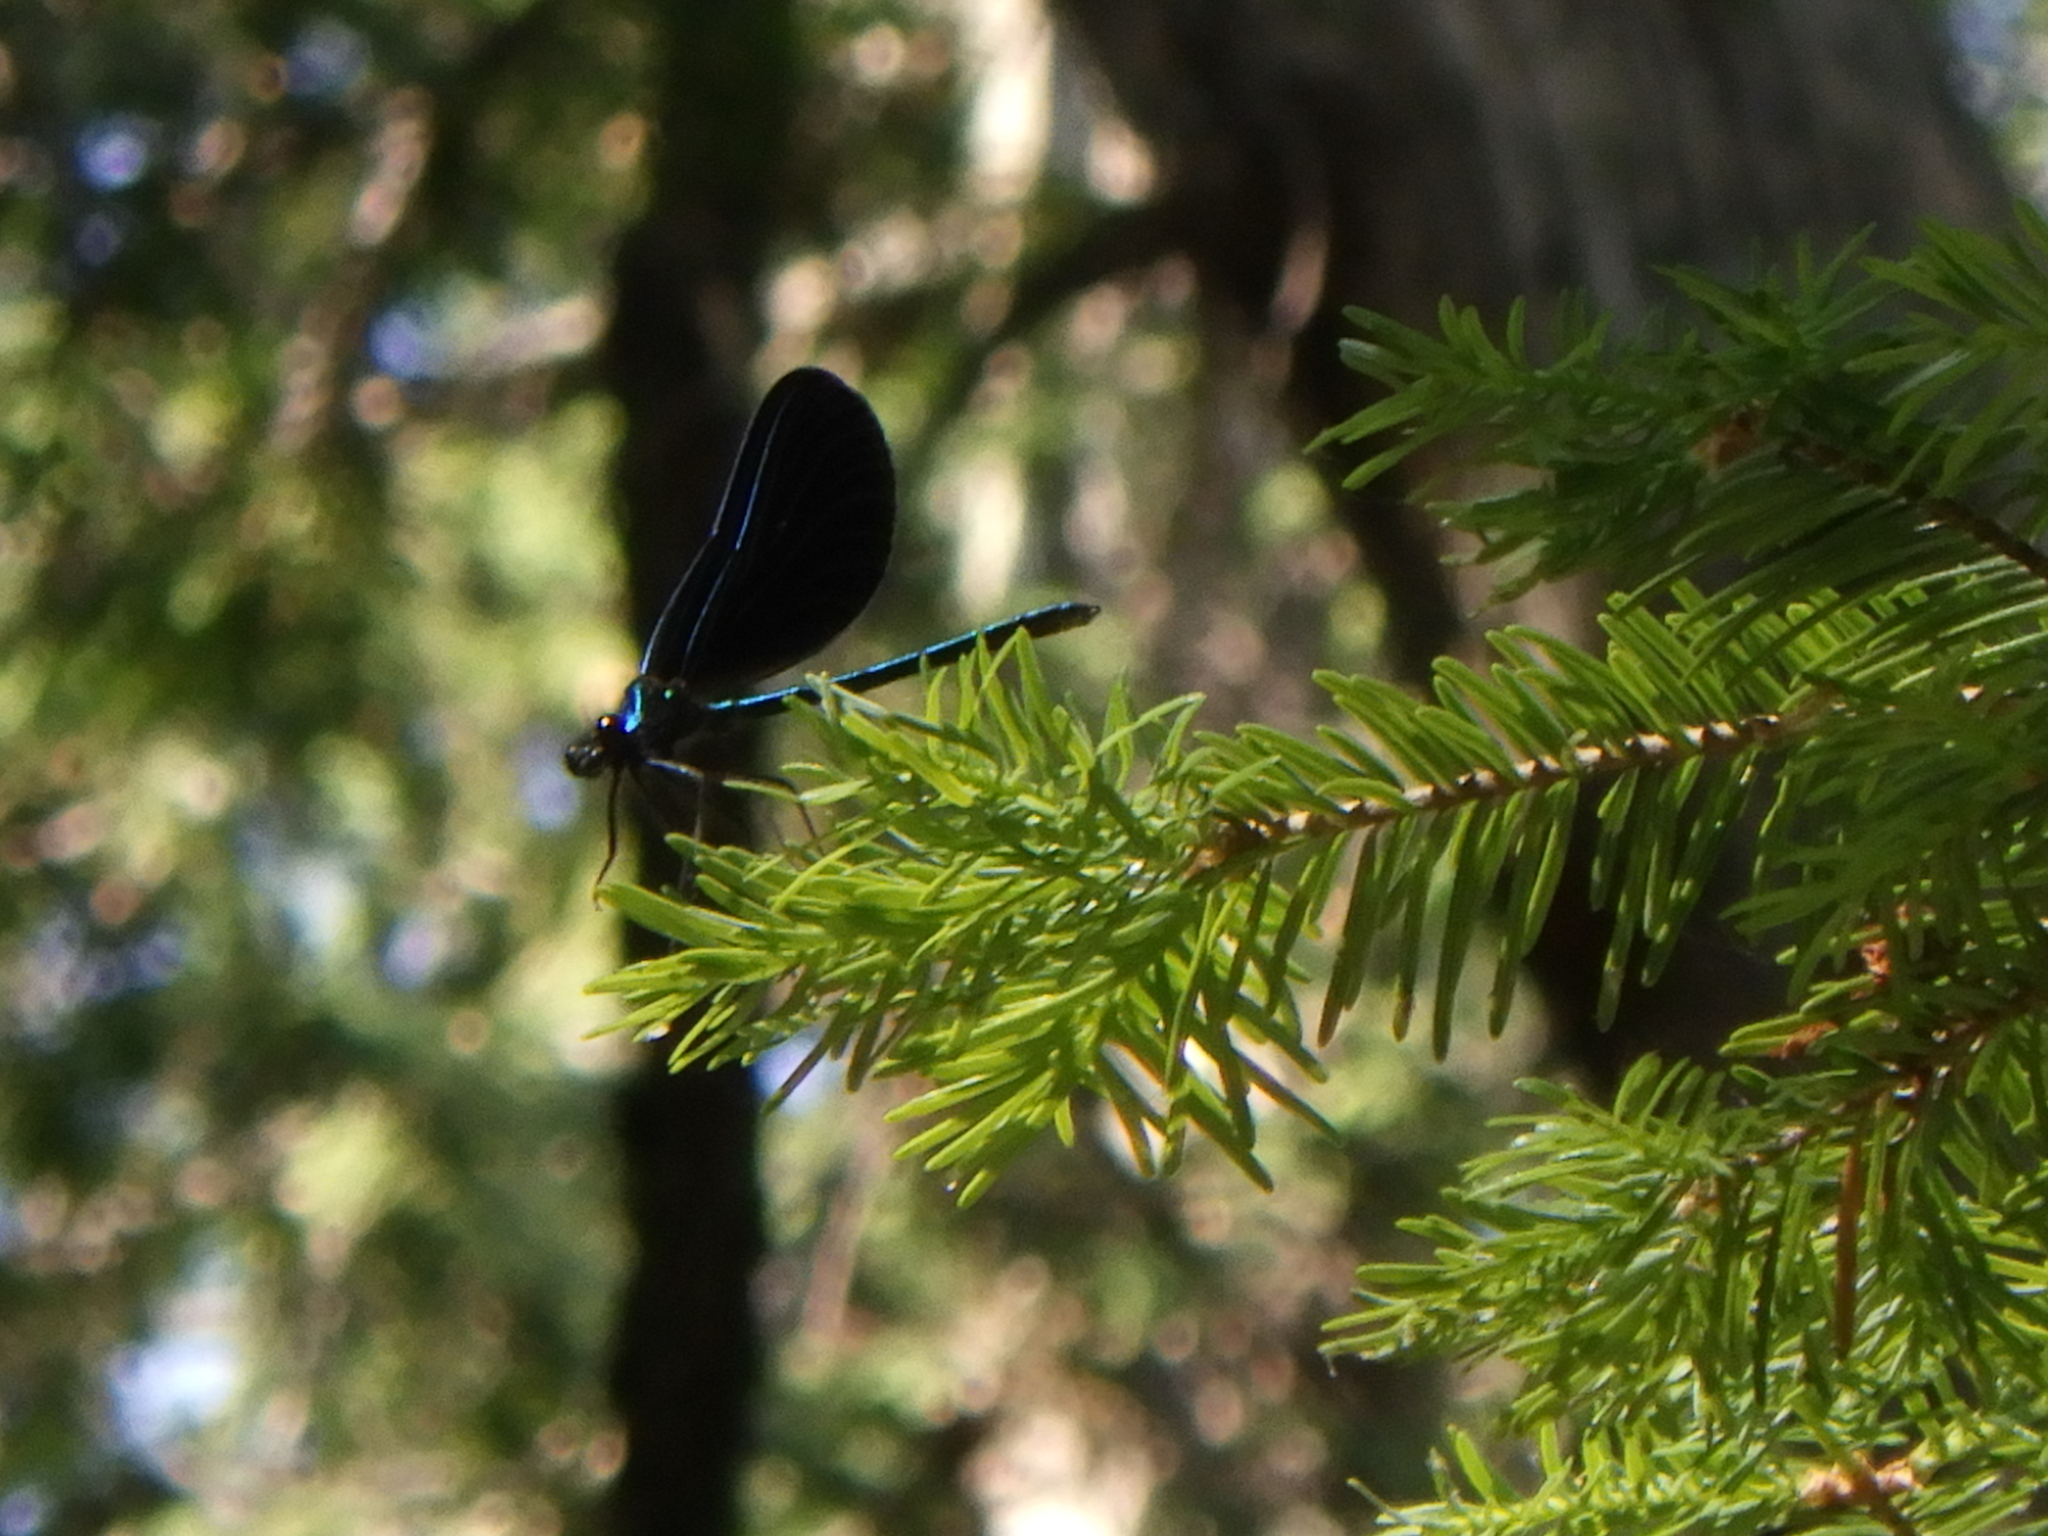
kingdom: Animalia
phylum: Arthropoda
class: Insecta
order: Odonata
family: Calopterygidae
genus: Calopteryx
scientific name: Calopteryx maculata
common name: Ebony jewelwing
